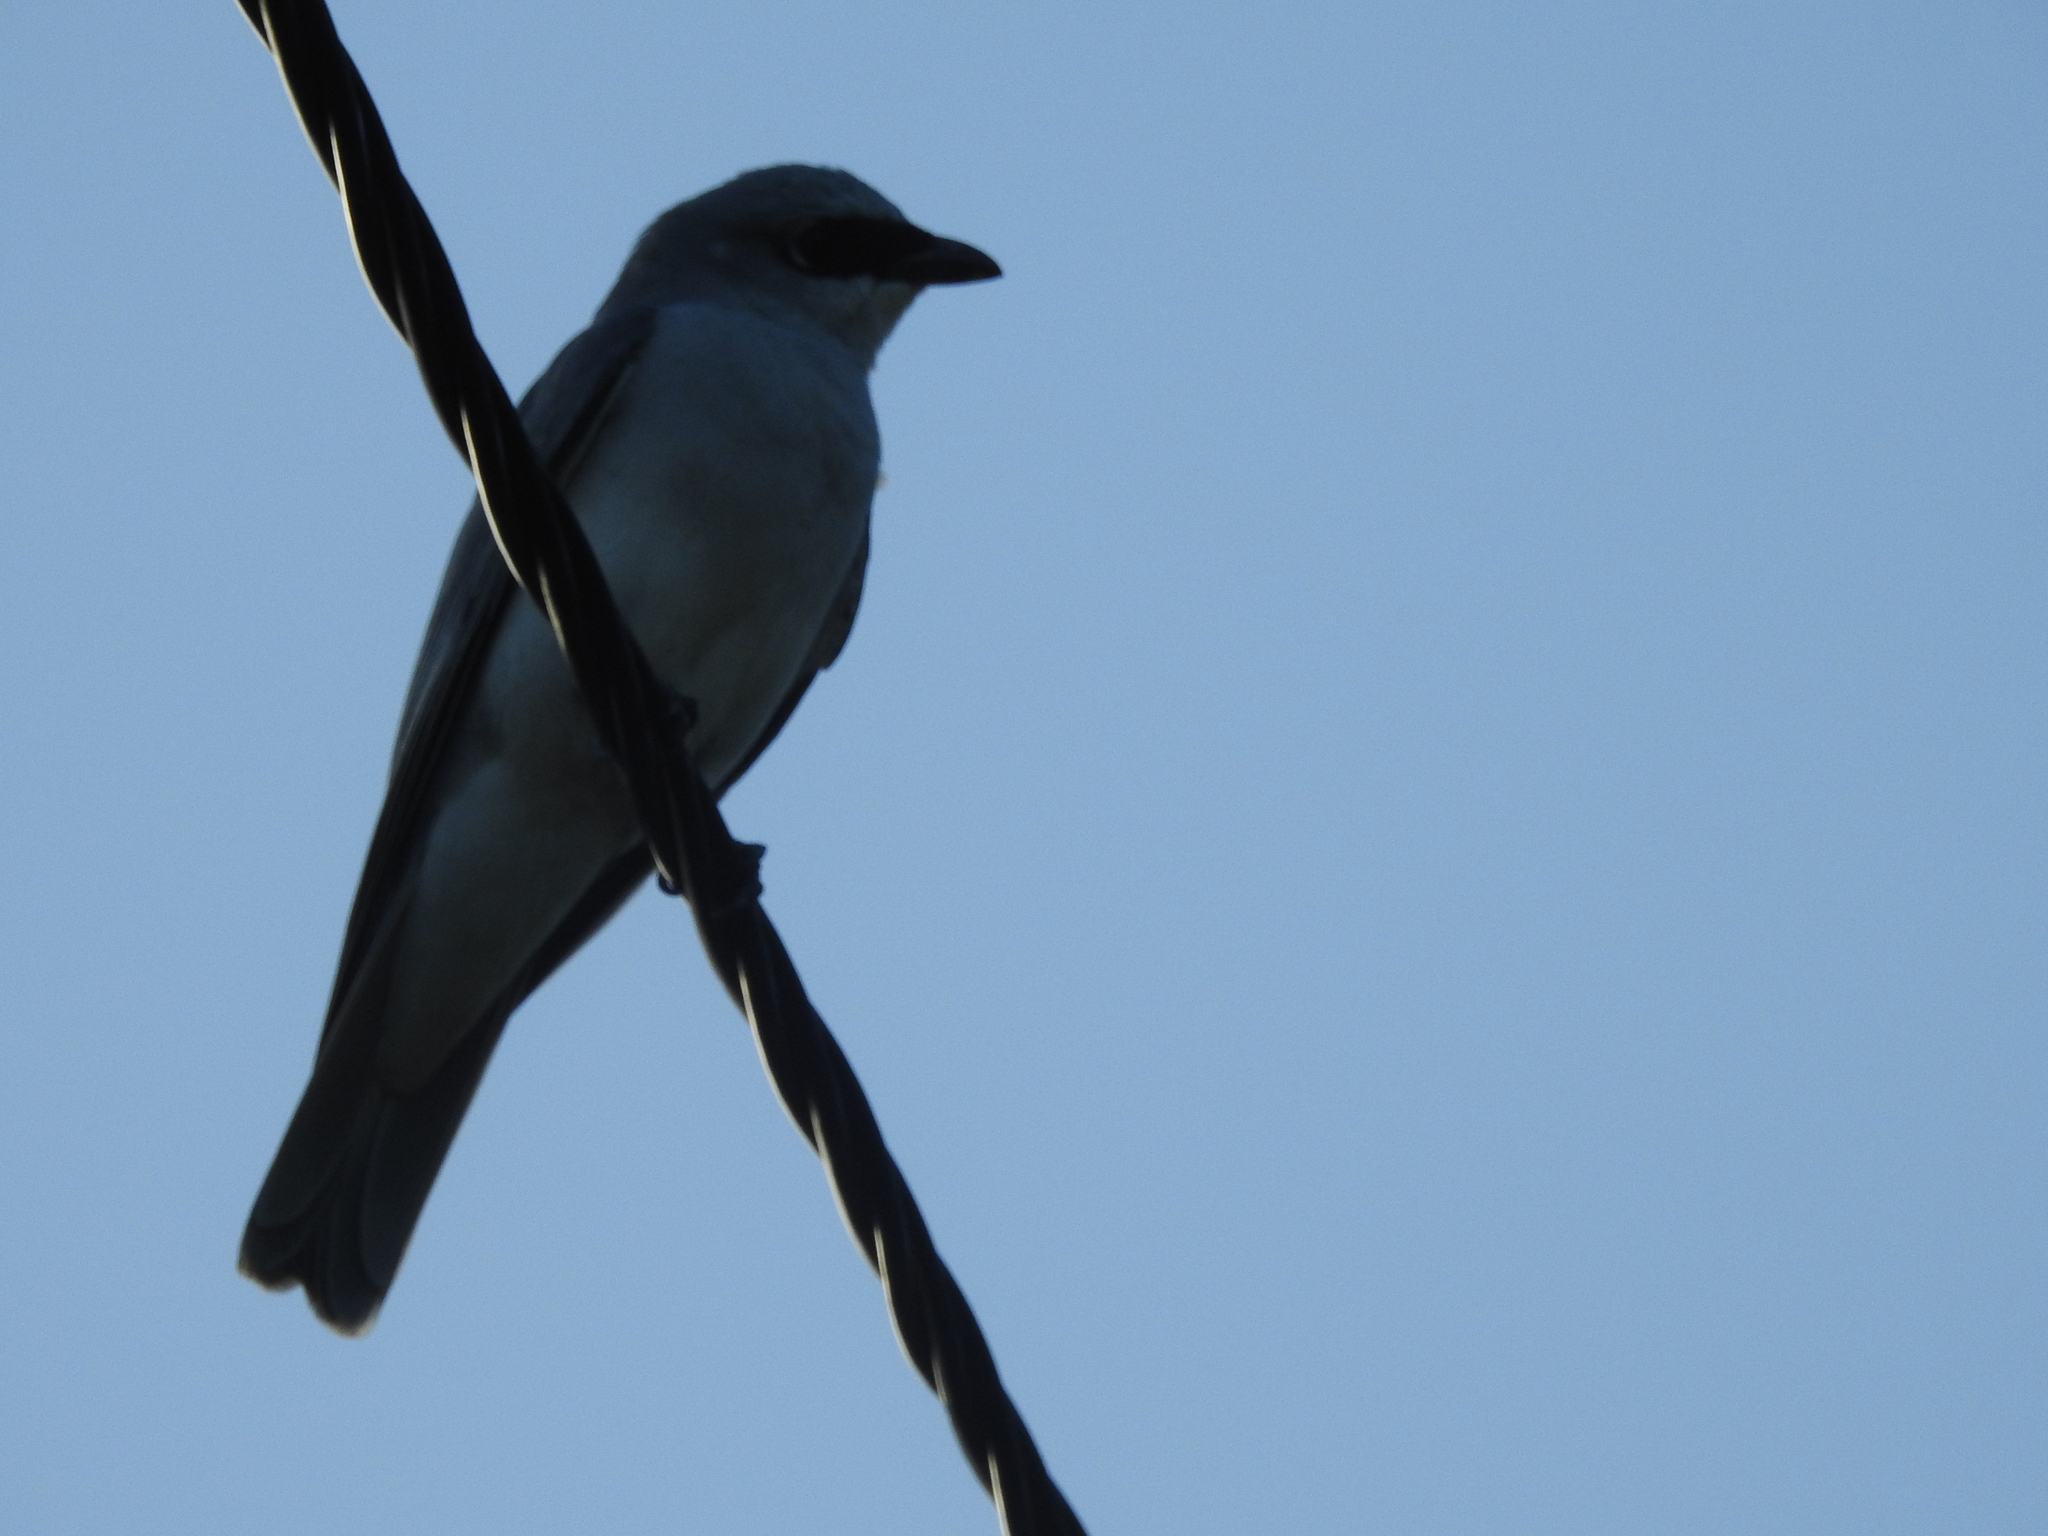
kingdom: Animalia
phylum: Chordata
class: Aves
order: Passeriformes
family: Campephagidae
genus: Coracina
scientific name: Coracina papuensis
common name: White-bellied cuckooshrike
